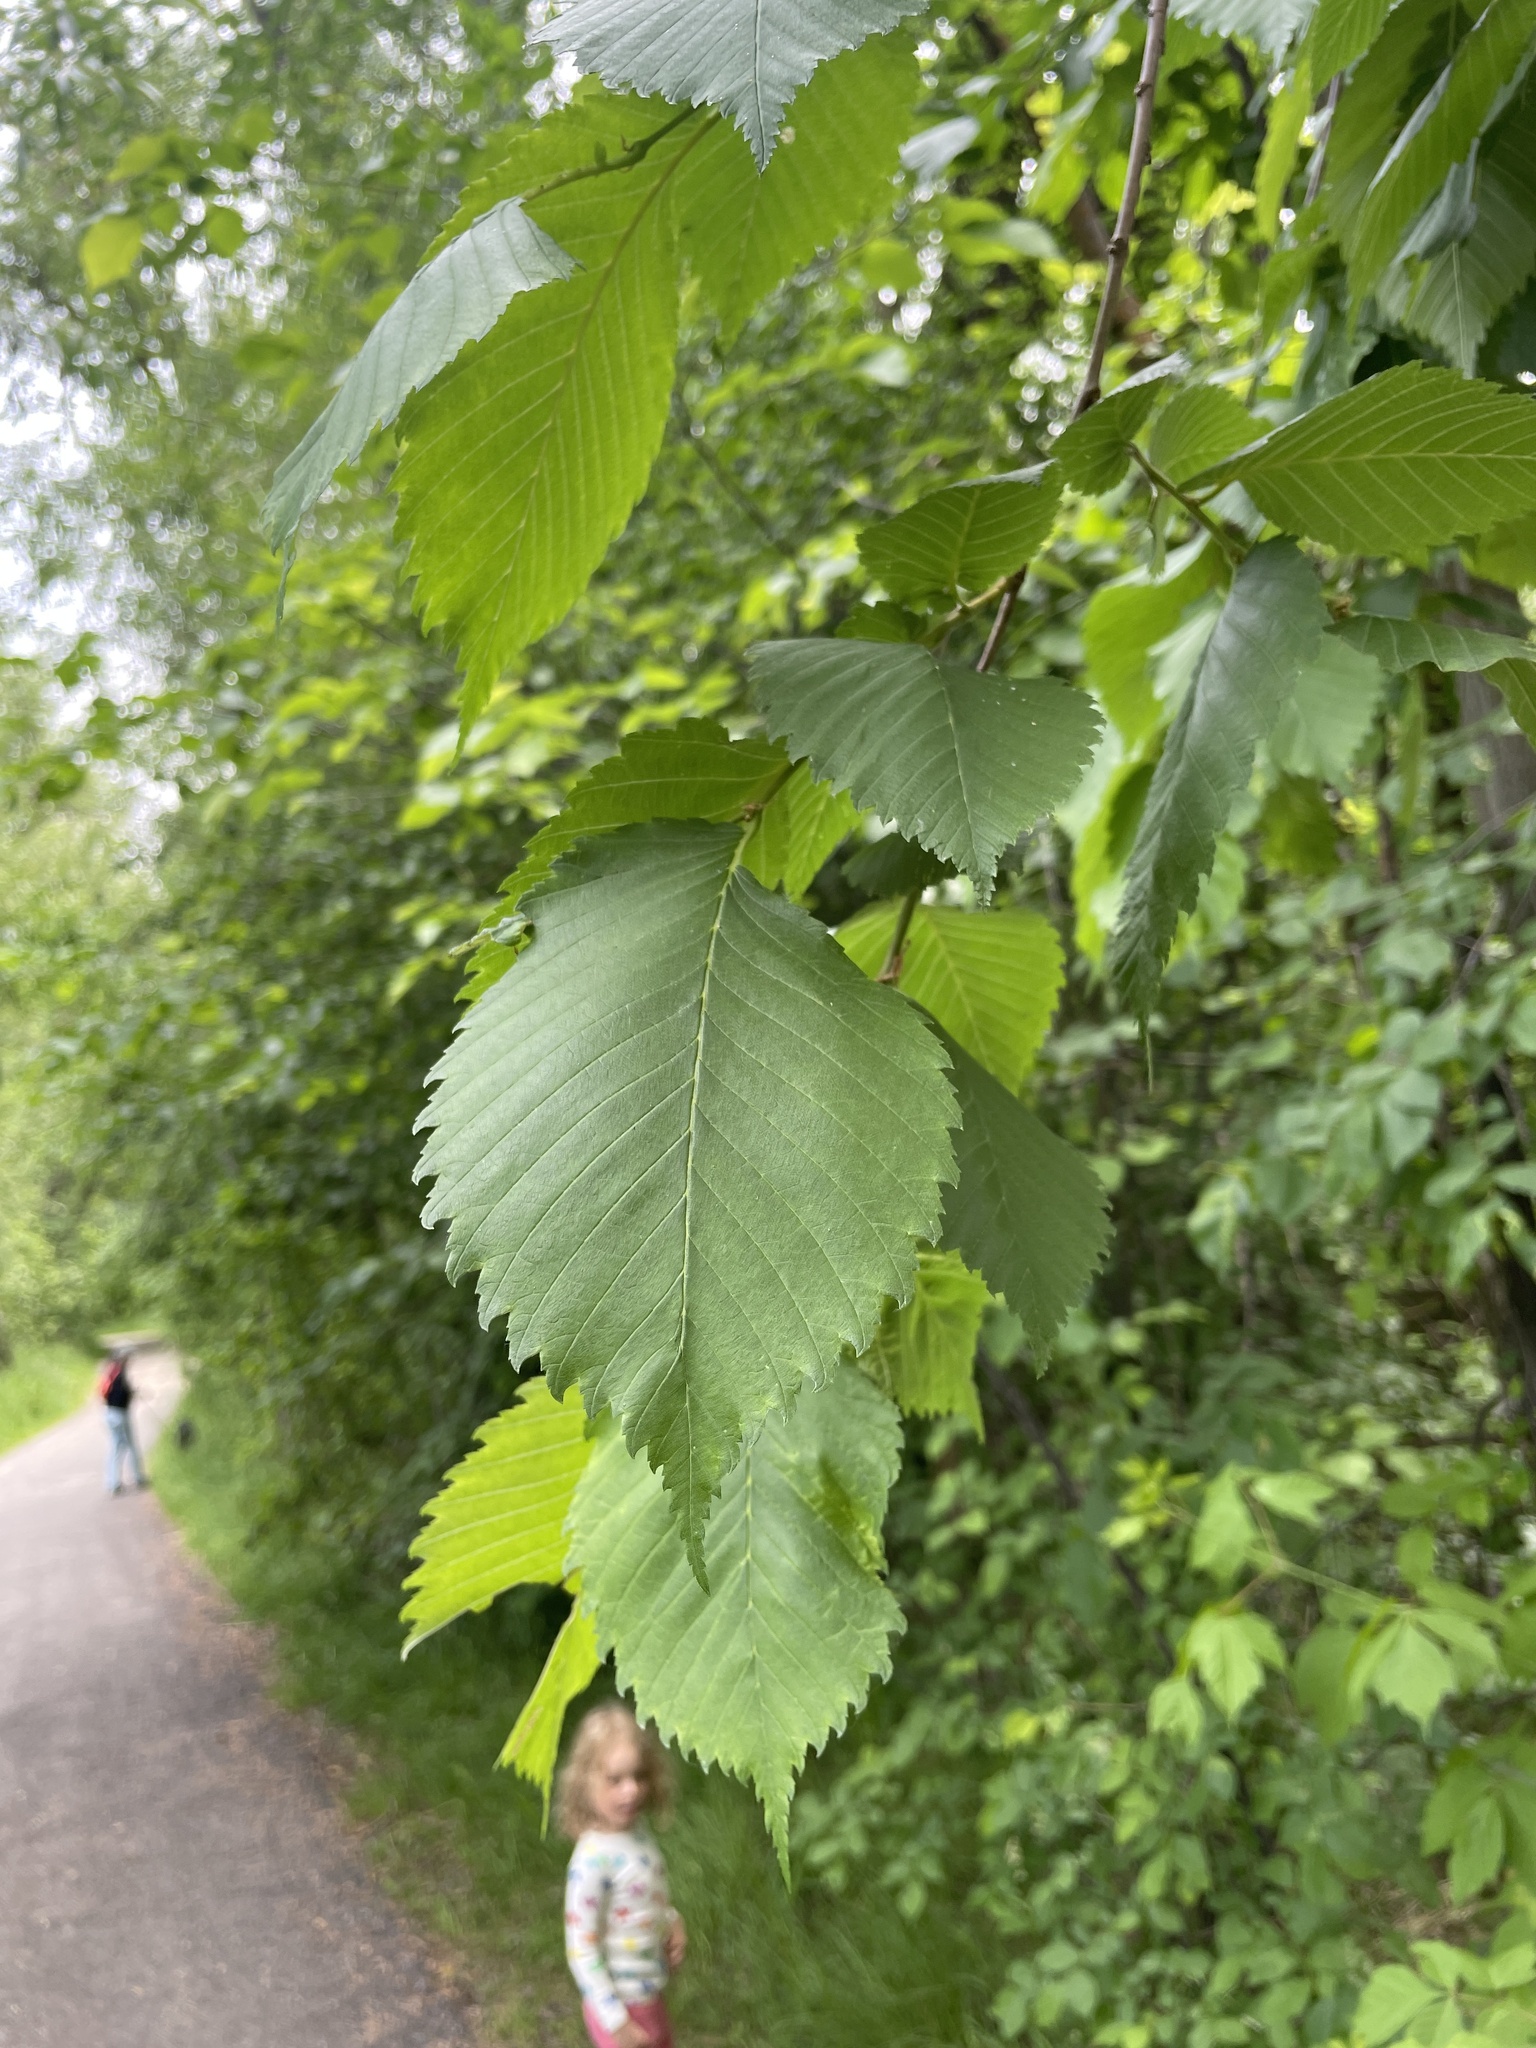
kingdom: Plantae
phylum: Tracheophyta
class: Magnoliopsida
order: Rosales
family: Ulmaceae
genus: Ulmus
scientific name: Ulmus americana
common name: American elm
